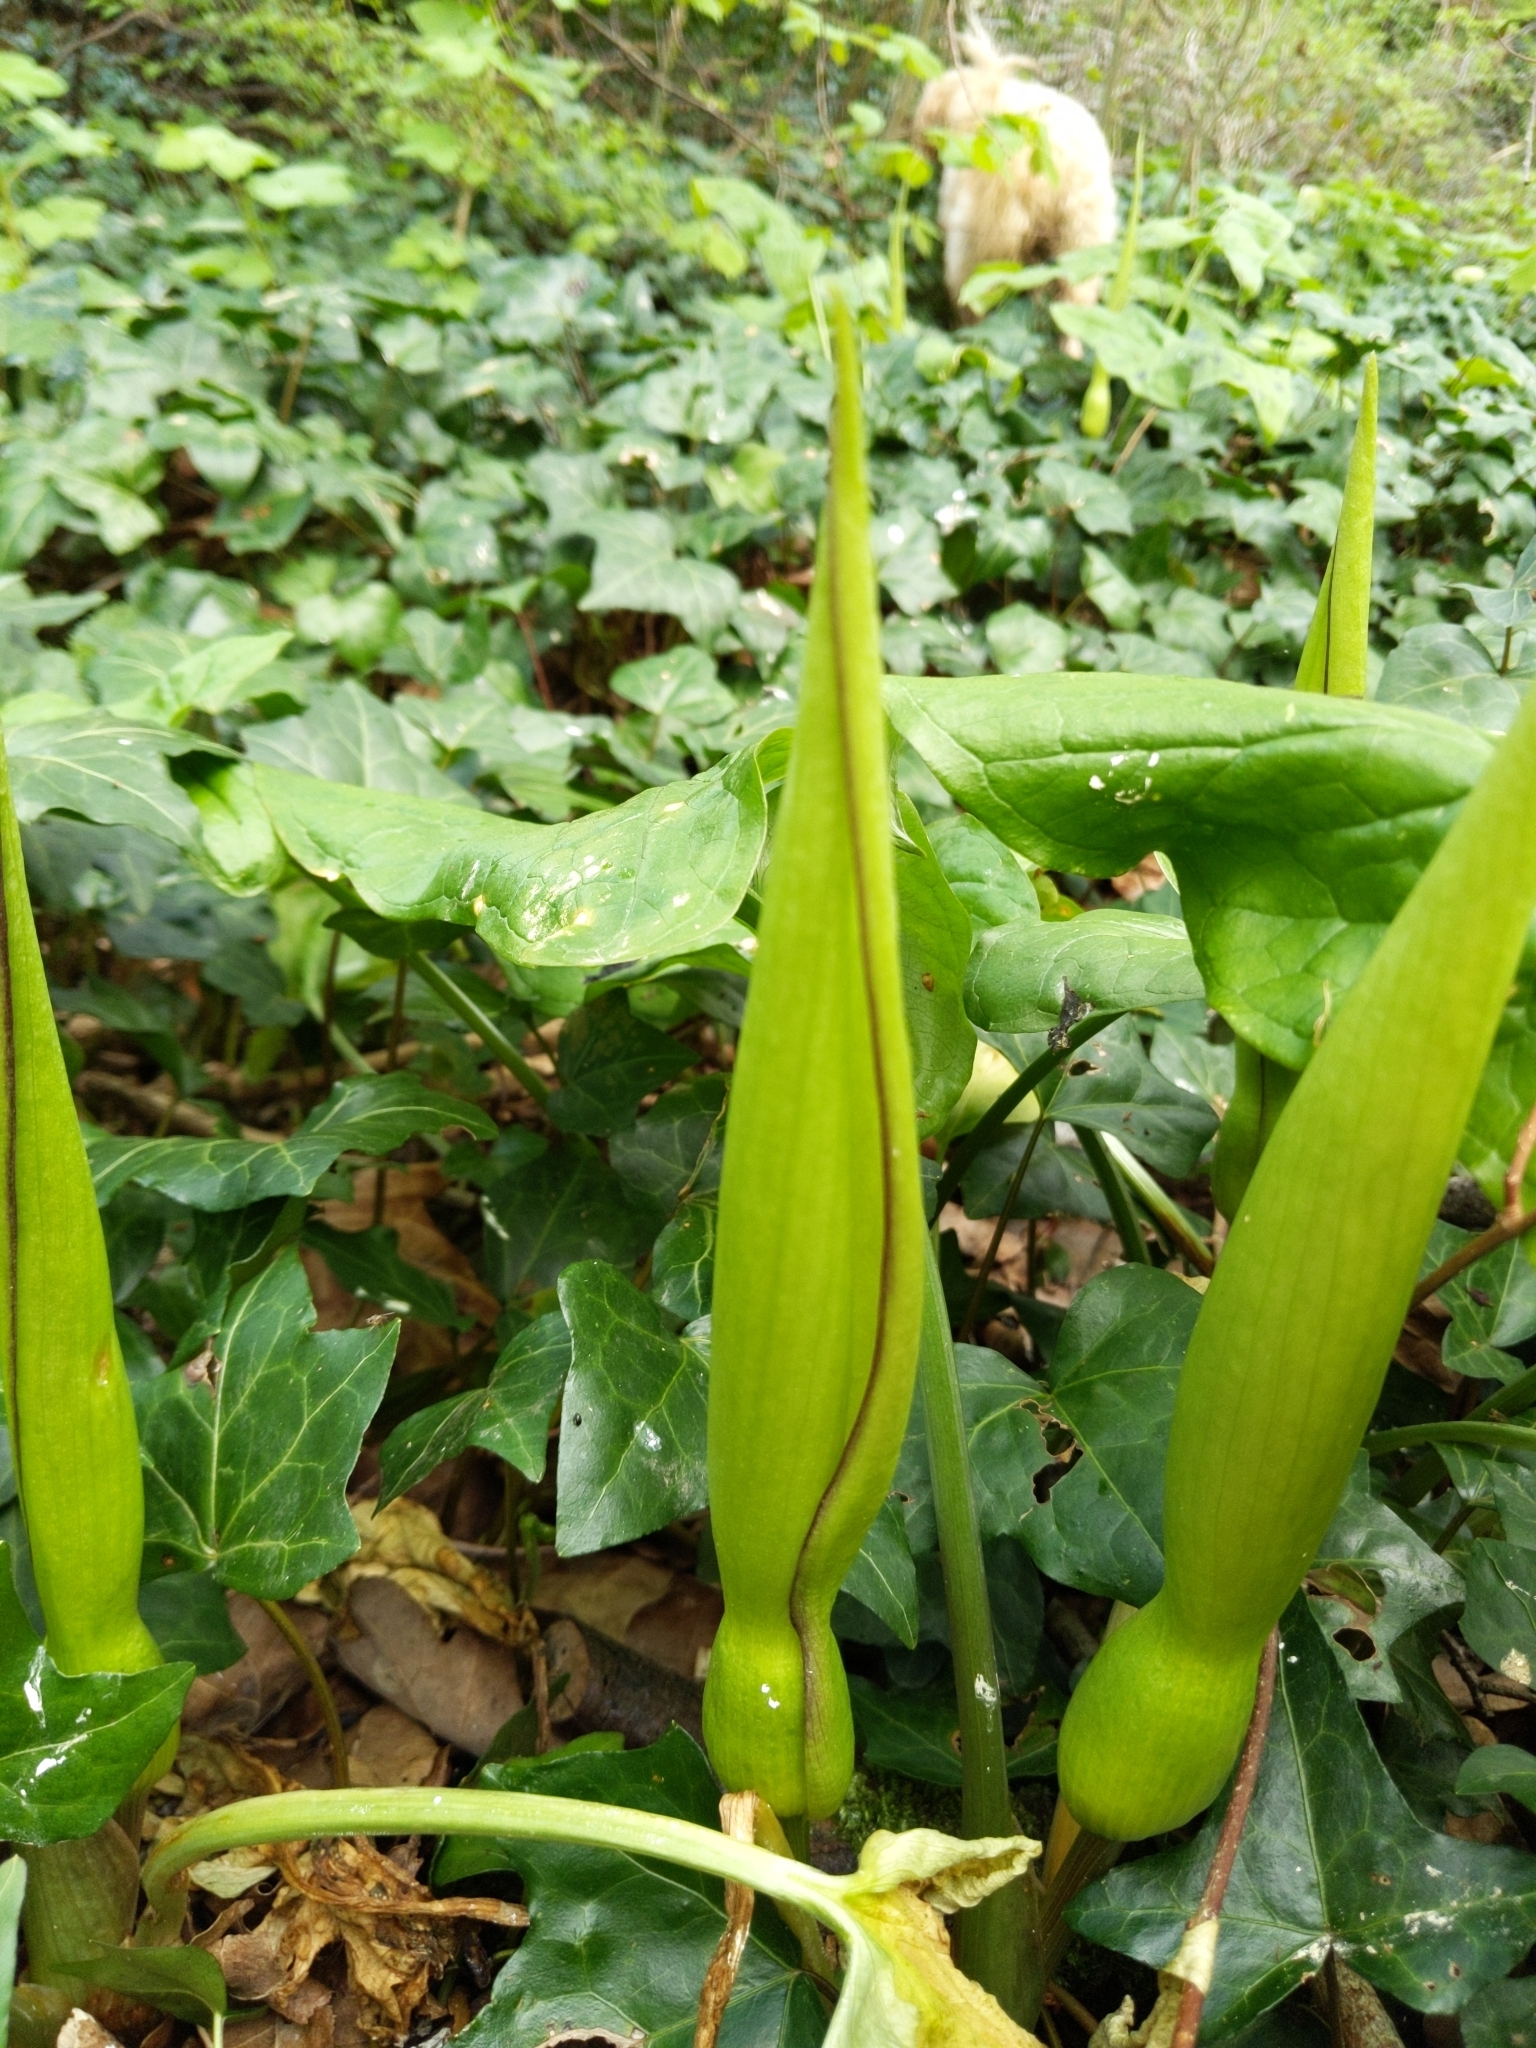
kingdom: Plantae
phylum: Tracheophyta
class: Liliopsida
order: Alismatales
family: Araceae
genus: Arum
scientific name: Arum maculatum
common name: Lords-and-ladies
